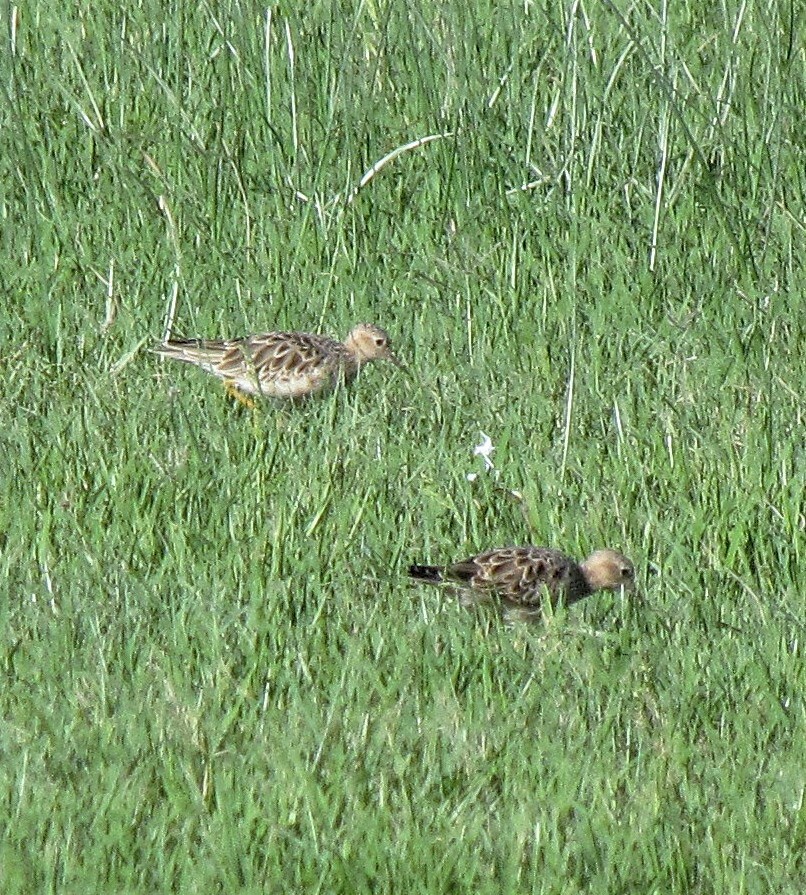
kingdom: Animalia
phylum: Chordata
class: Aves
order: Charadriiformes
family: Scolopacidae
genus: Calidris
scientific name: Calidris subruficollis
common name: Buff-breasted sandpiper
